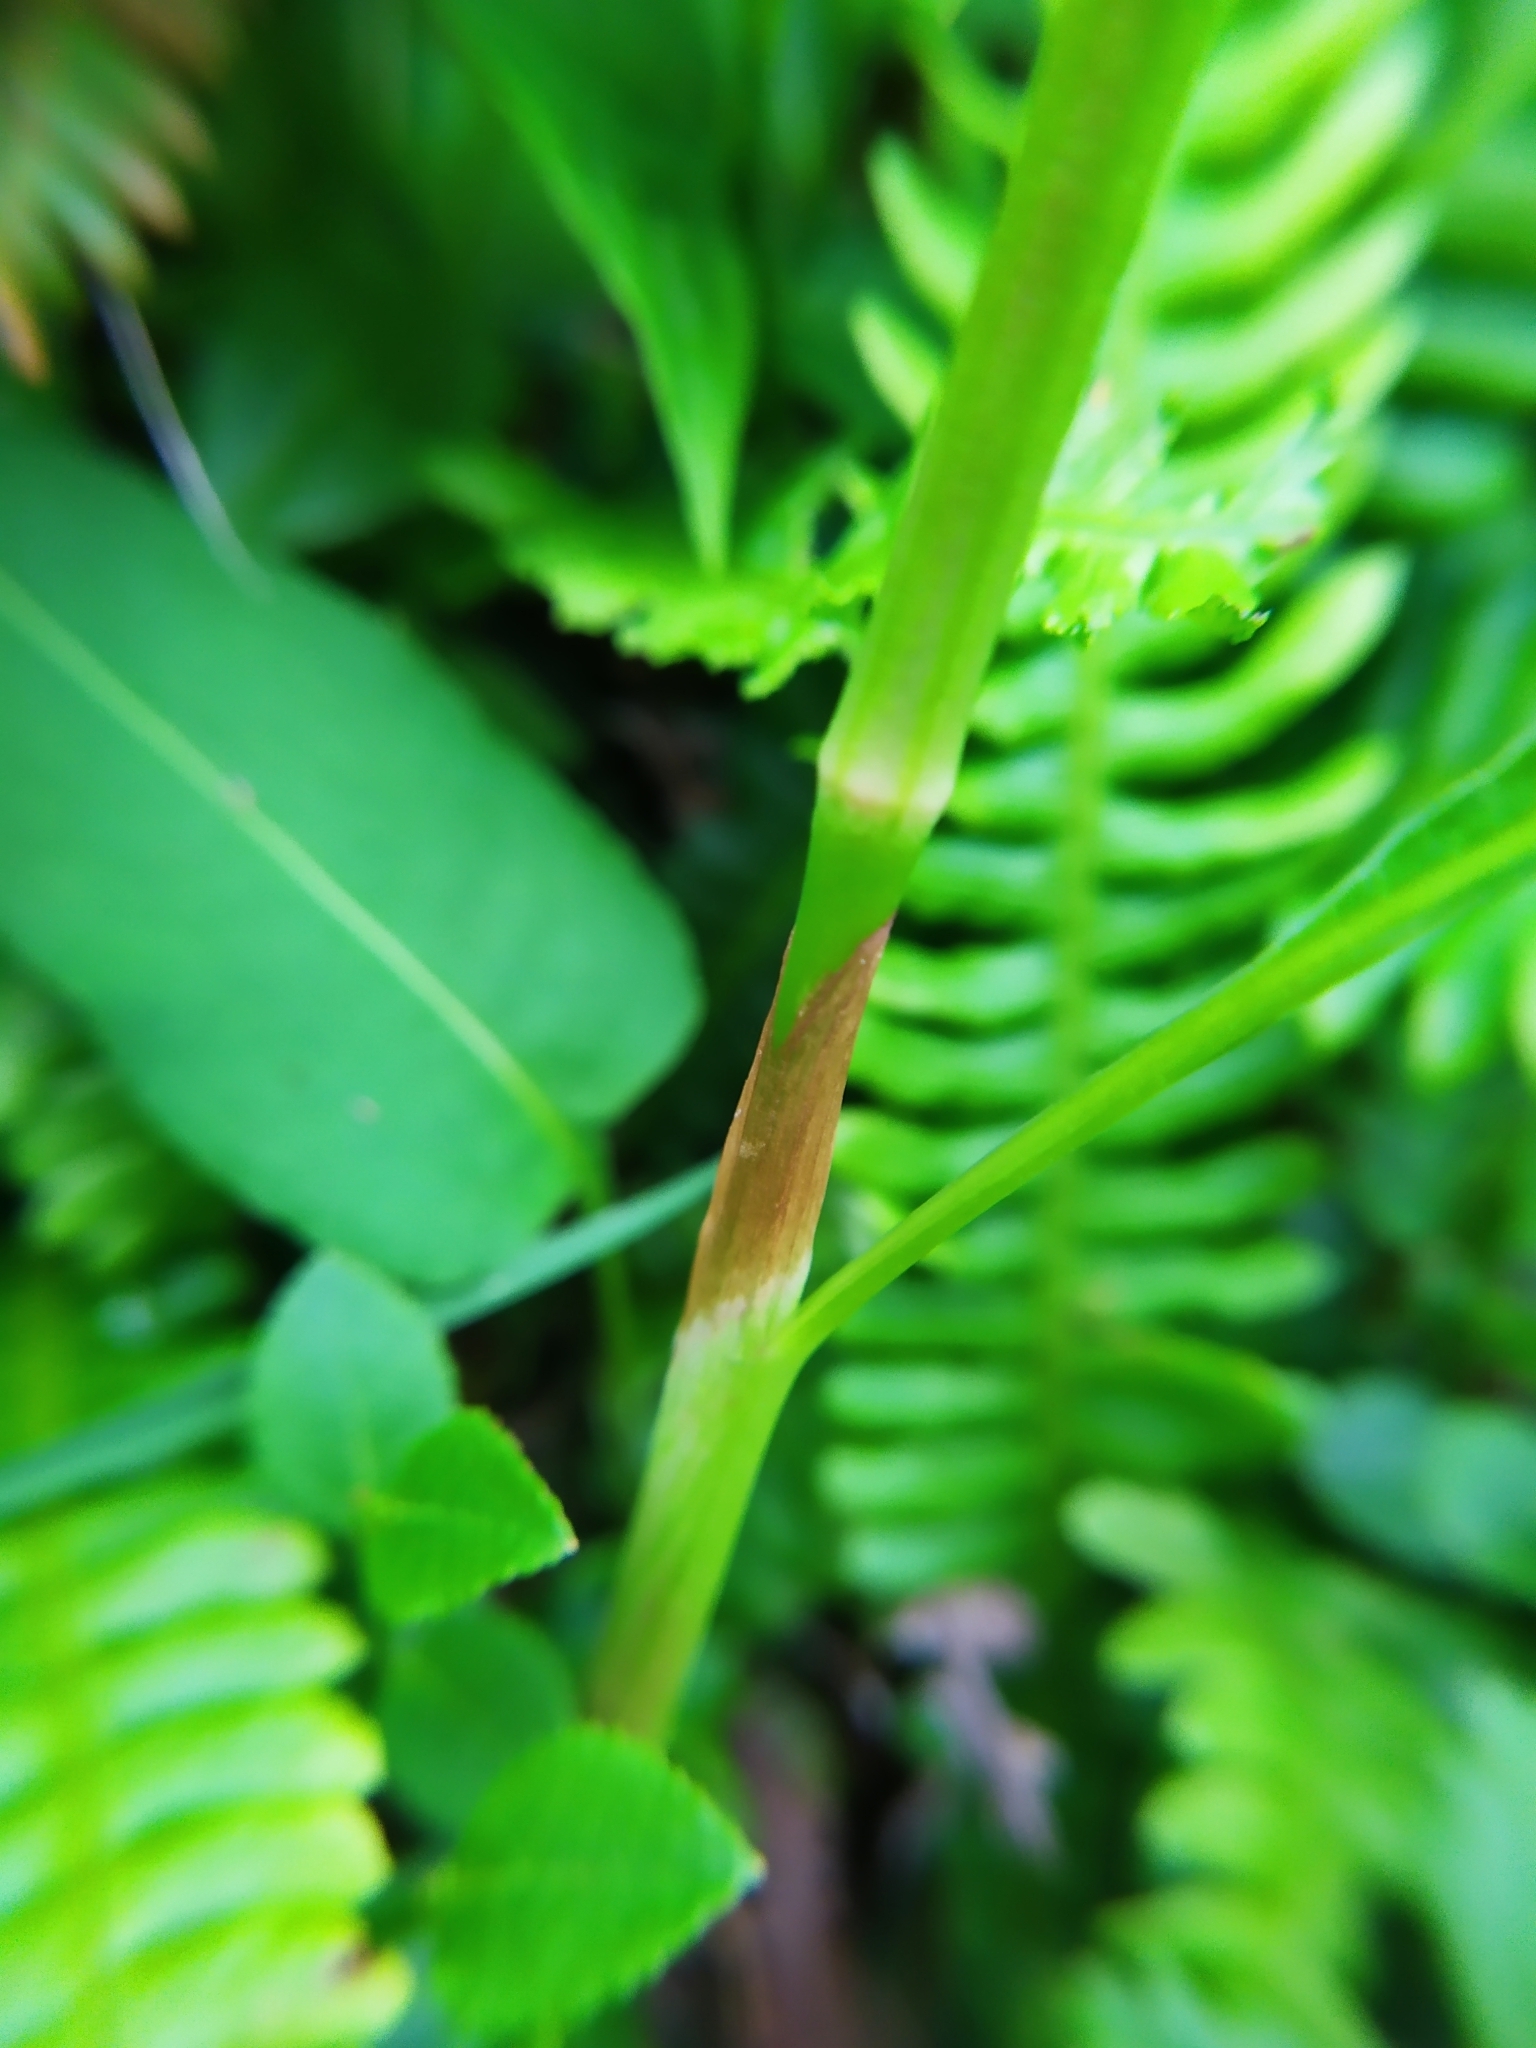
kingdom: Plantae
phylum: Tracheophyta
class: Magnoliopsida
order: Caryophyllales
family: Polygonaceae
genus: Bistorta
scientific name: Bistorta officinalis
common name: Common bistort
